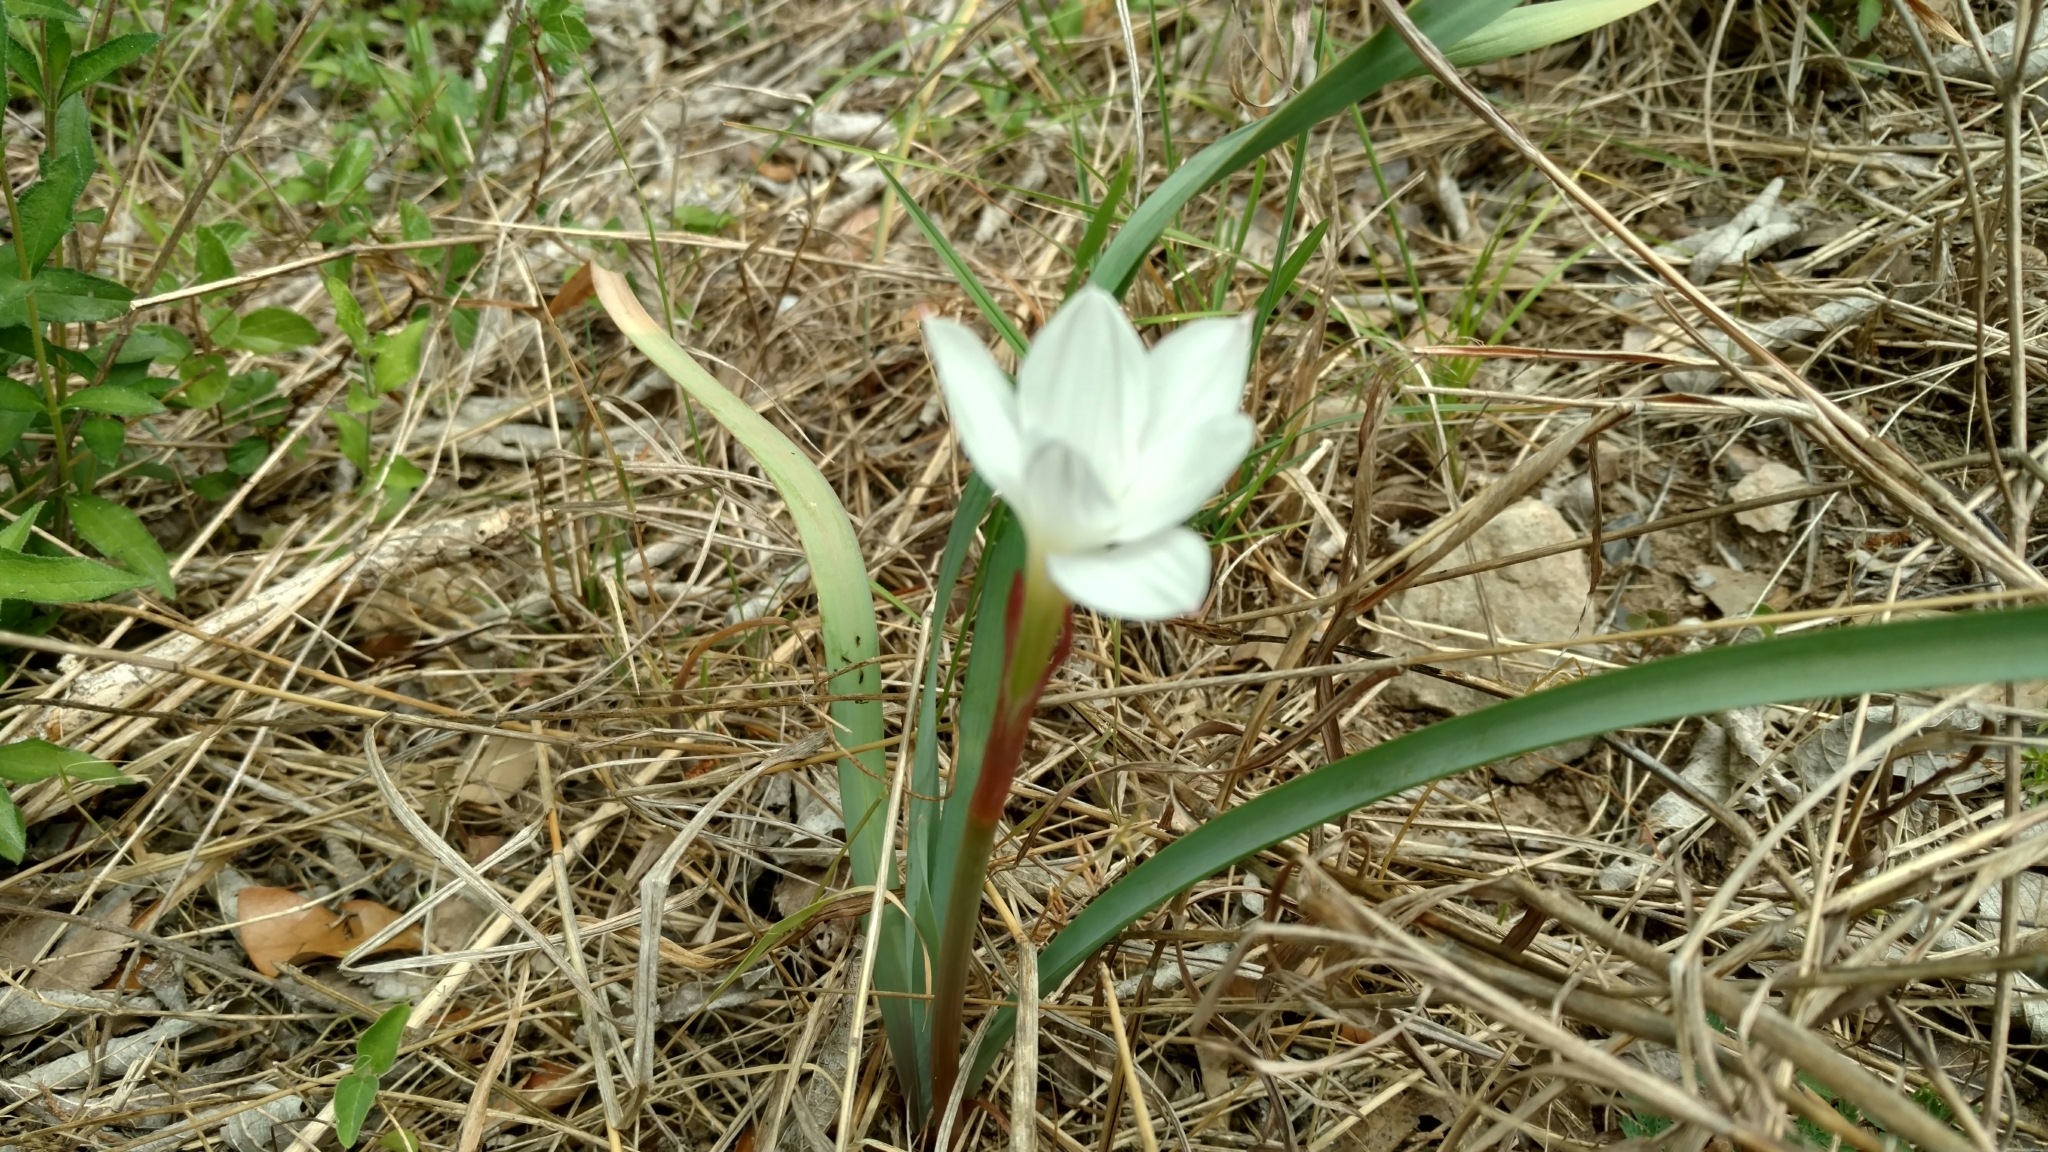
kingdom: Plantae
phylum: Tracheophyta
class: Liliopsida
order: Asparagales
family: Amaryllidaceae
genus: Zephyranthes
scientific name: Zephyranthes drummondii
